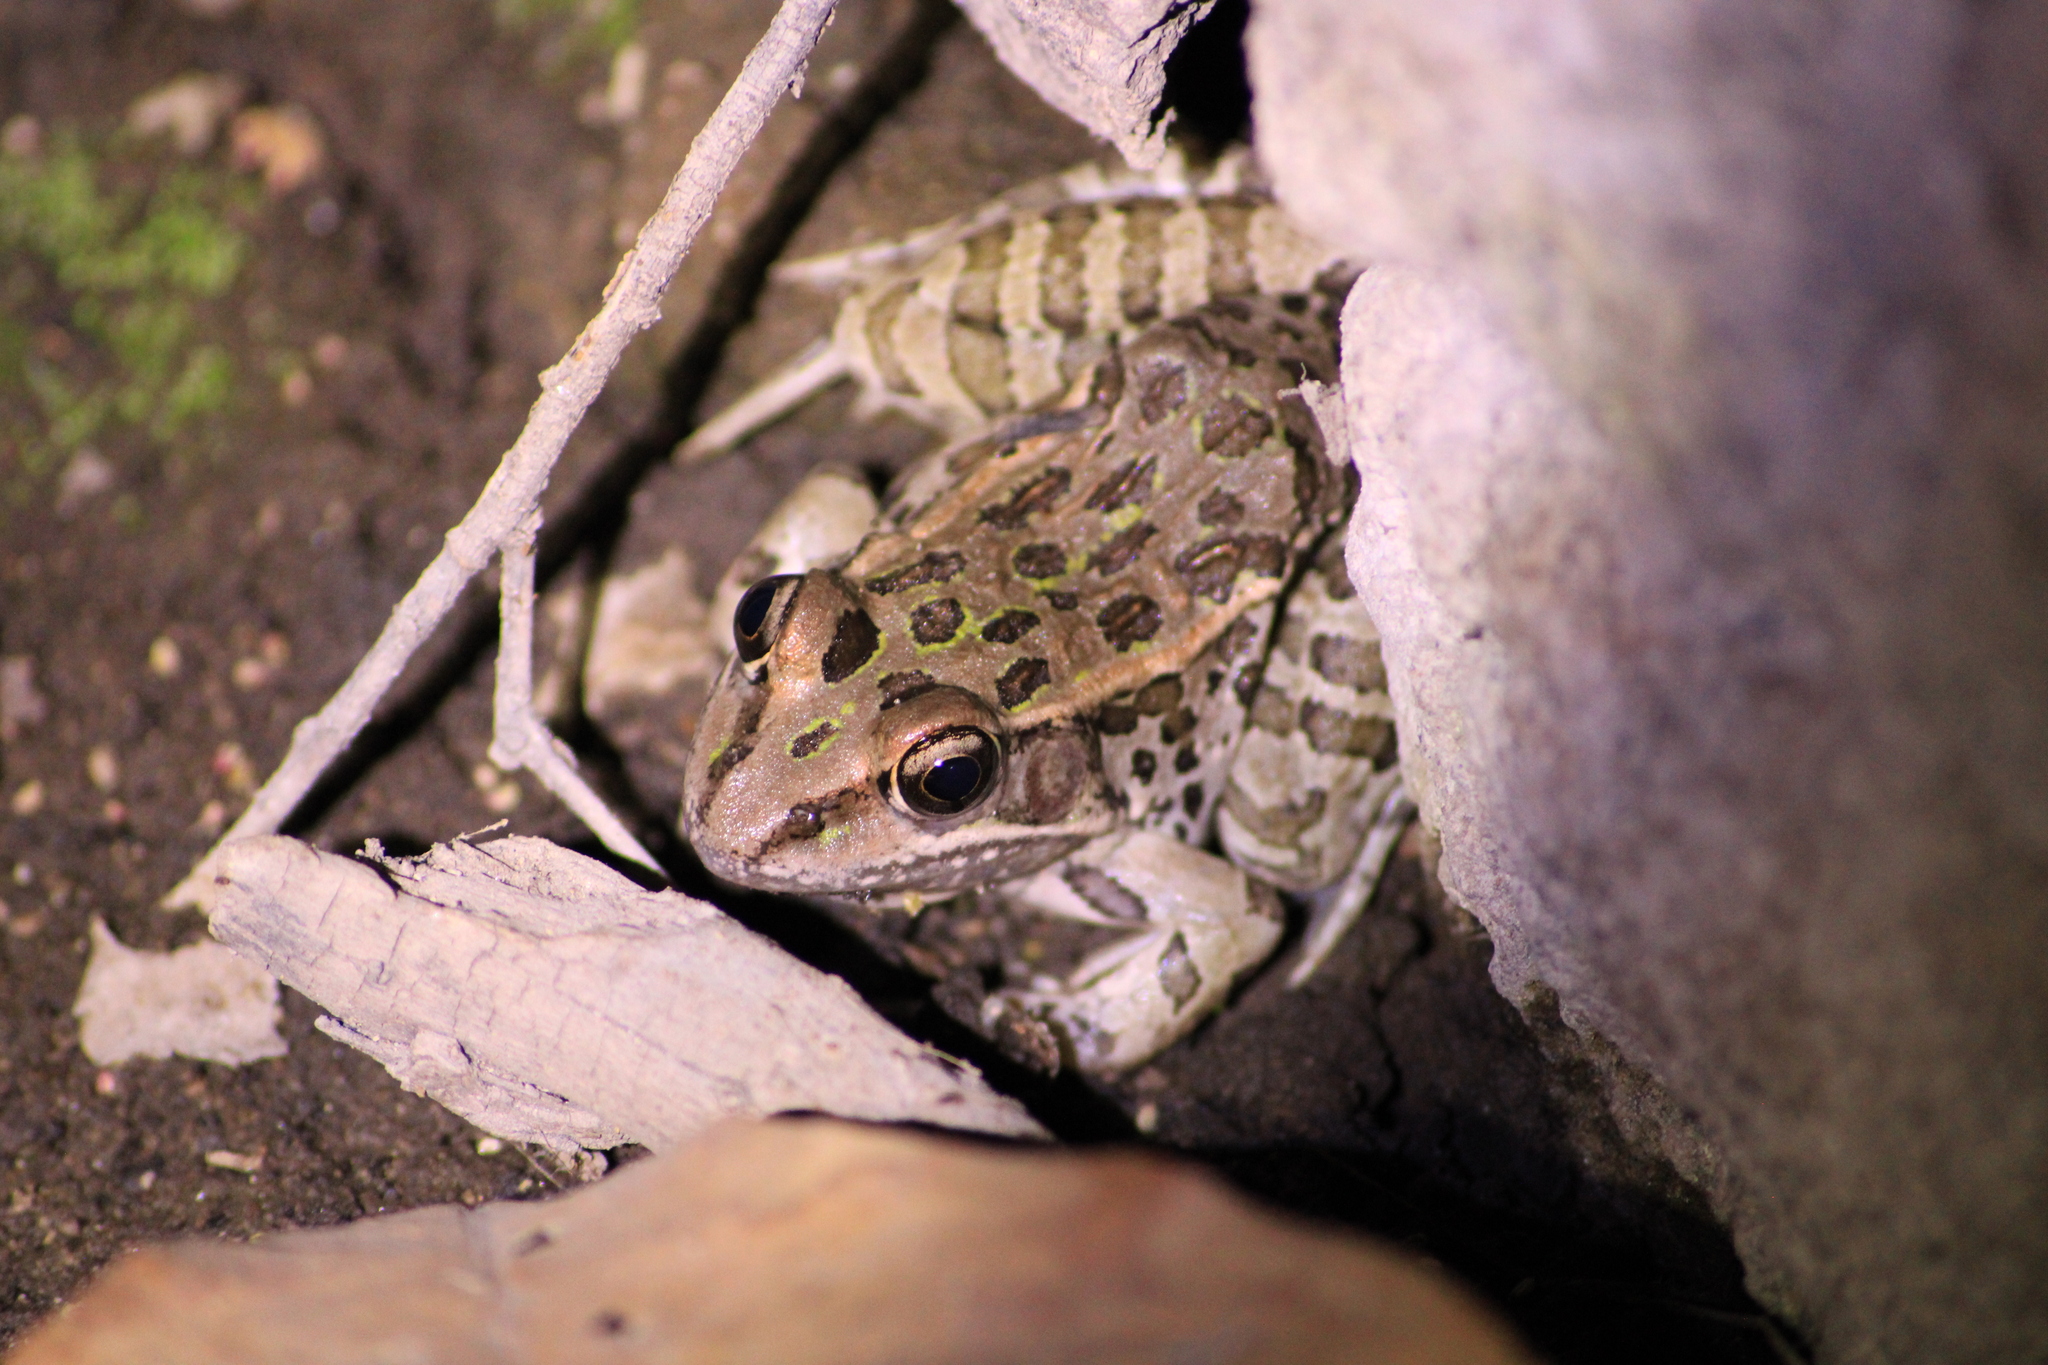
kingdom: Animalia
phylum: Chordata
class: Amphibia
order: Anura
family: Ranidae
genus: Lithobates
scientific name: Lithobates magnaocularis
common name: Northwest mexico leopard frog
